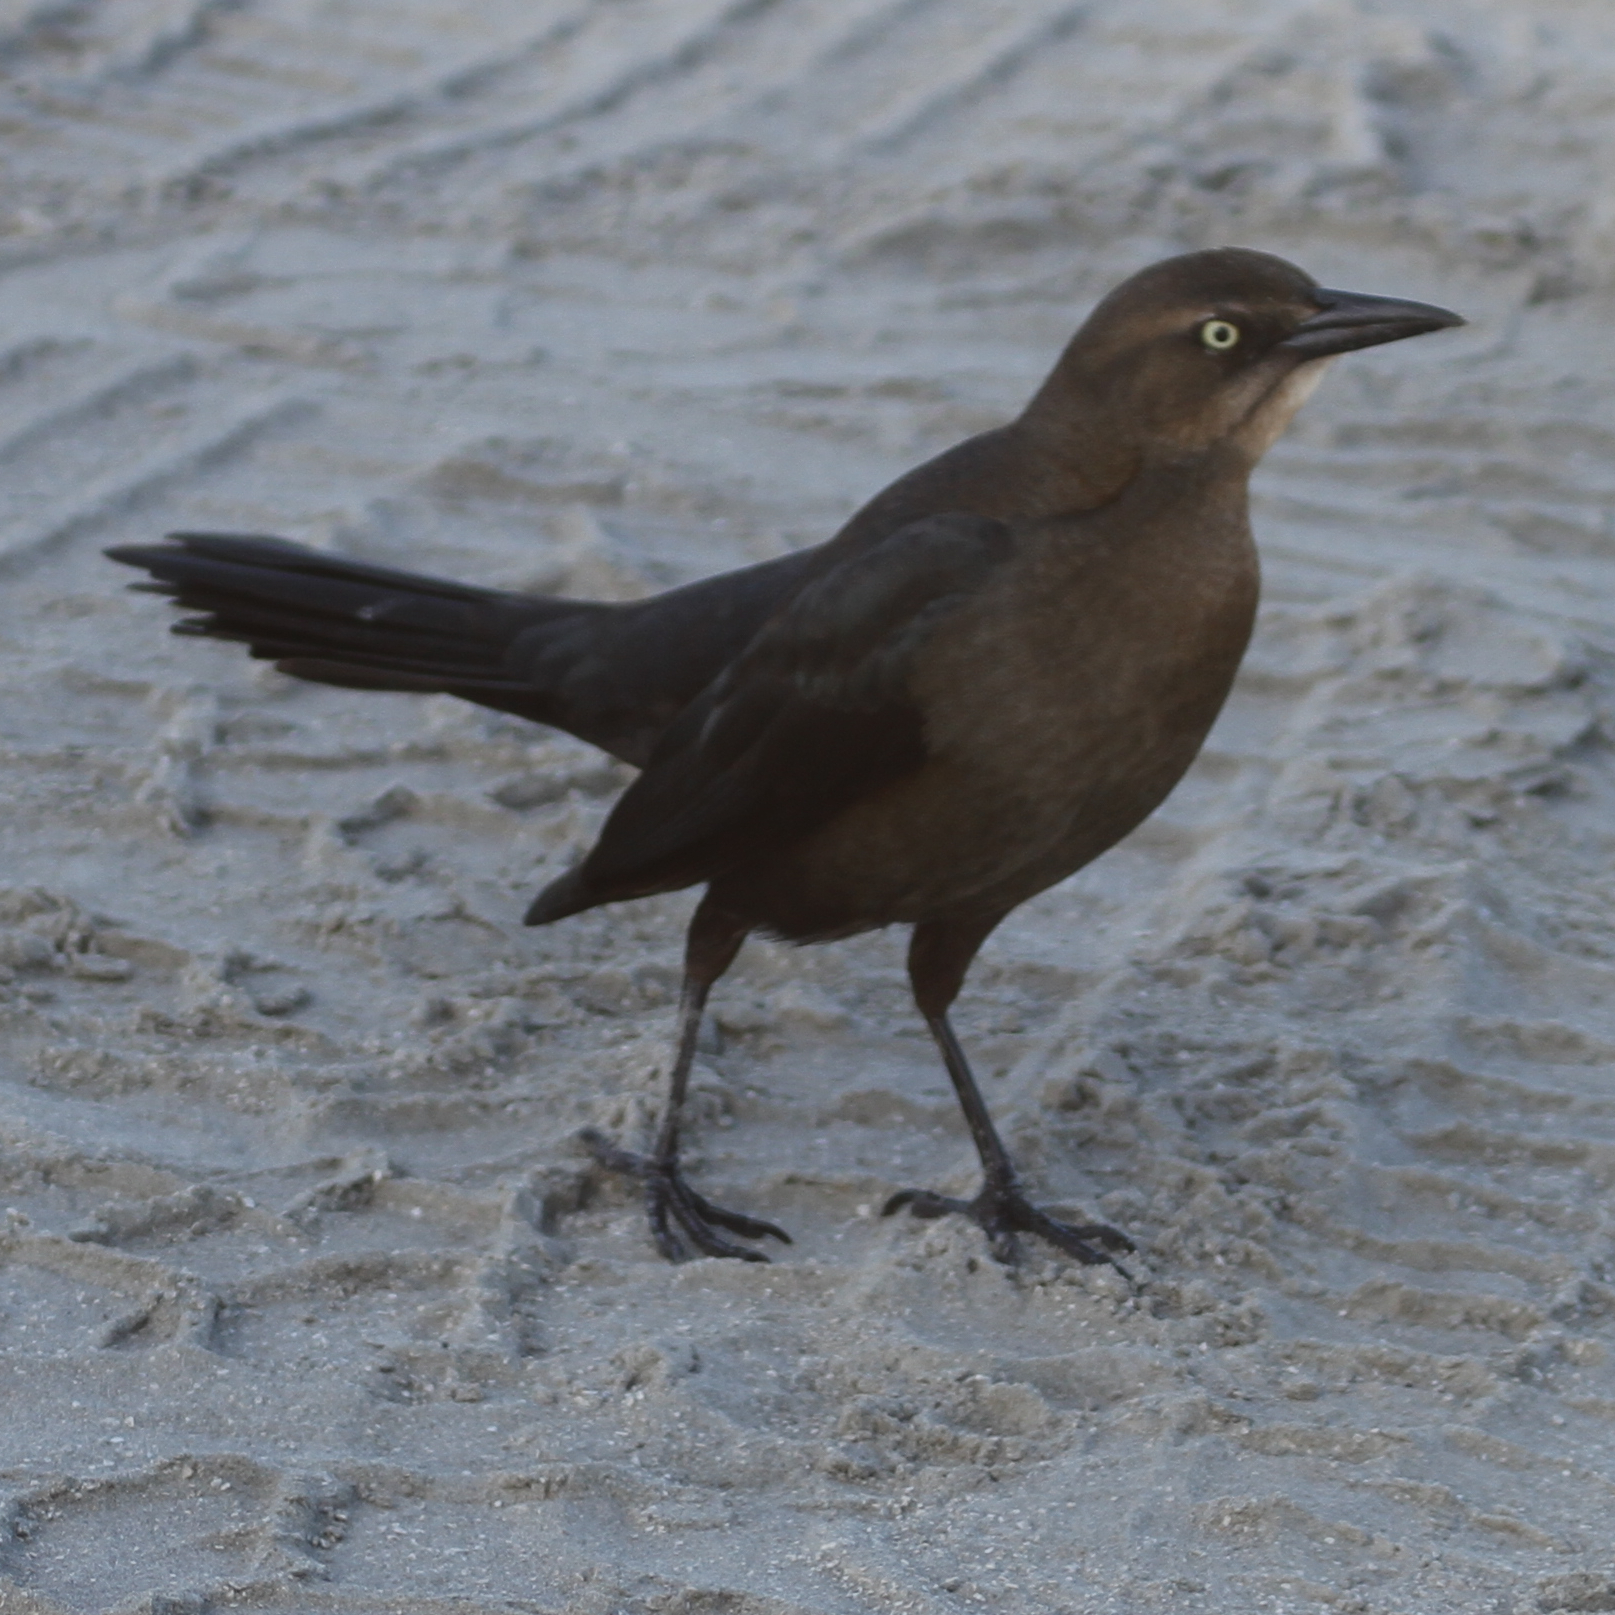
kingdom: Animalia
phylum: Chordata
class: Aves
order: Passeriformes
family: Icteridae
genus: Quiscalus
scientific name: Quiscalus mexicanus
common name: Great-tailed grackle
